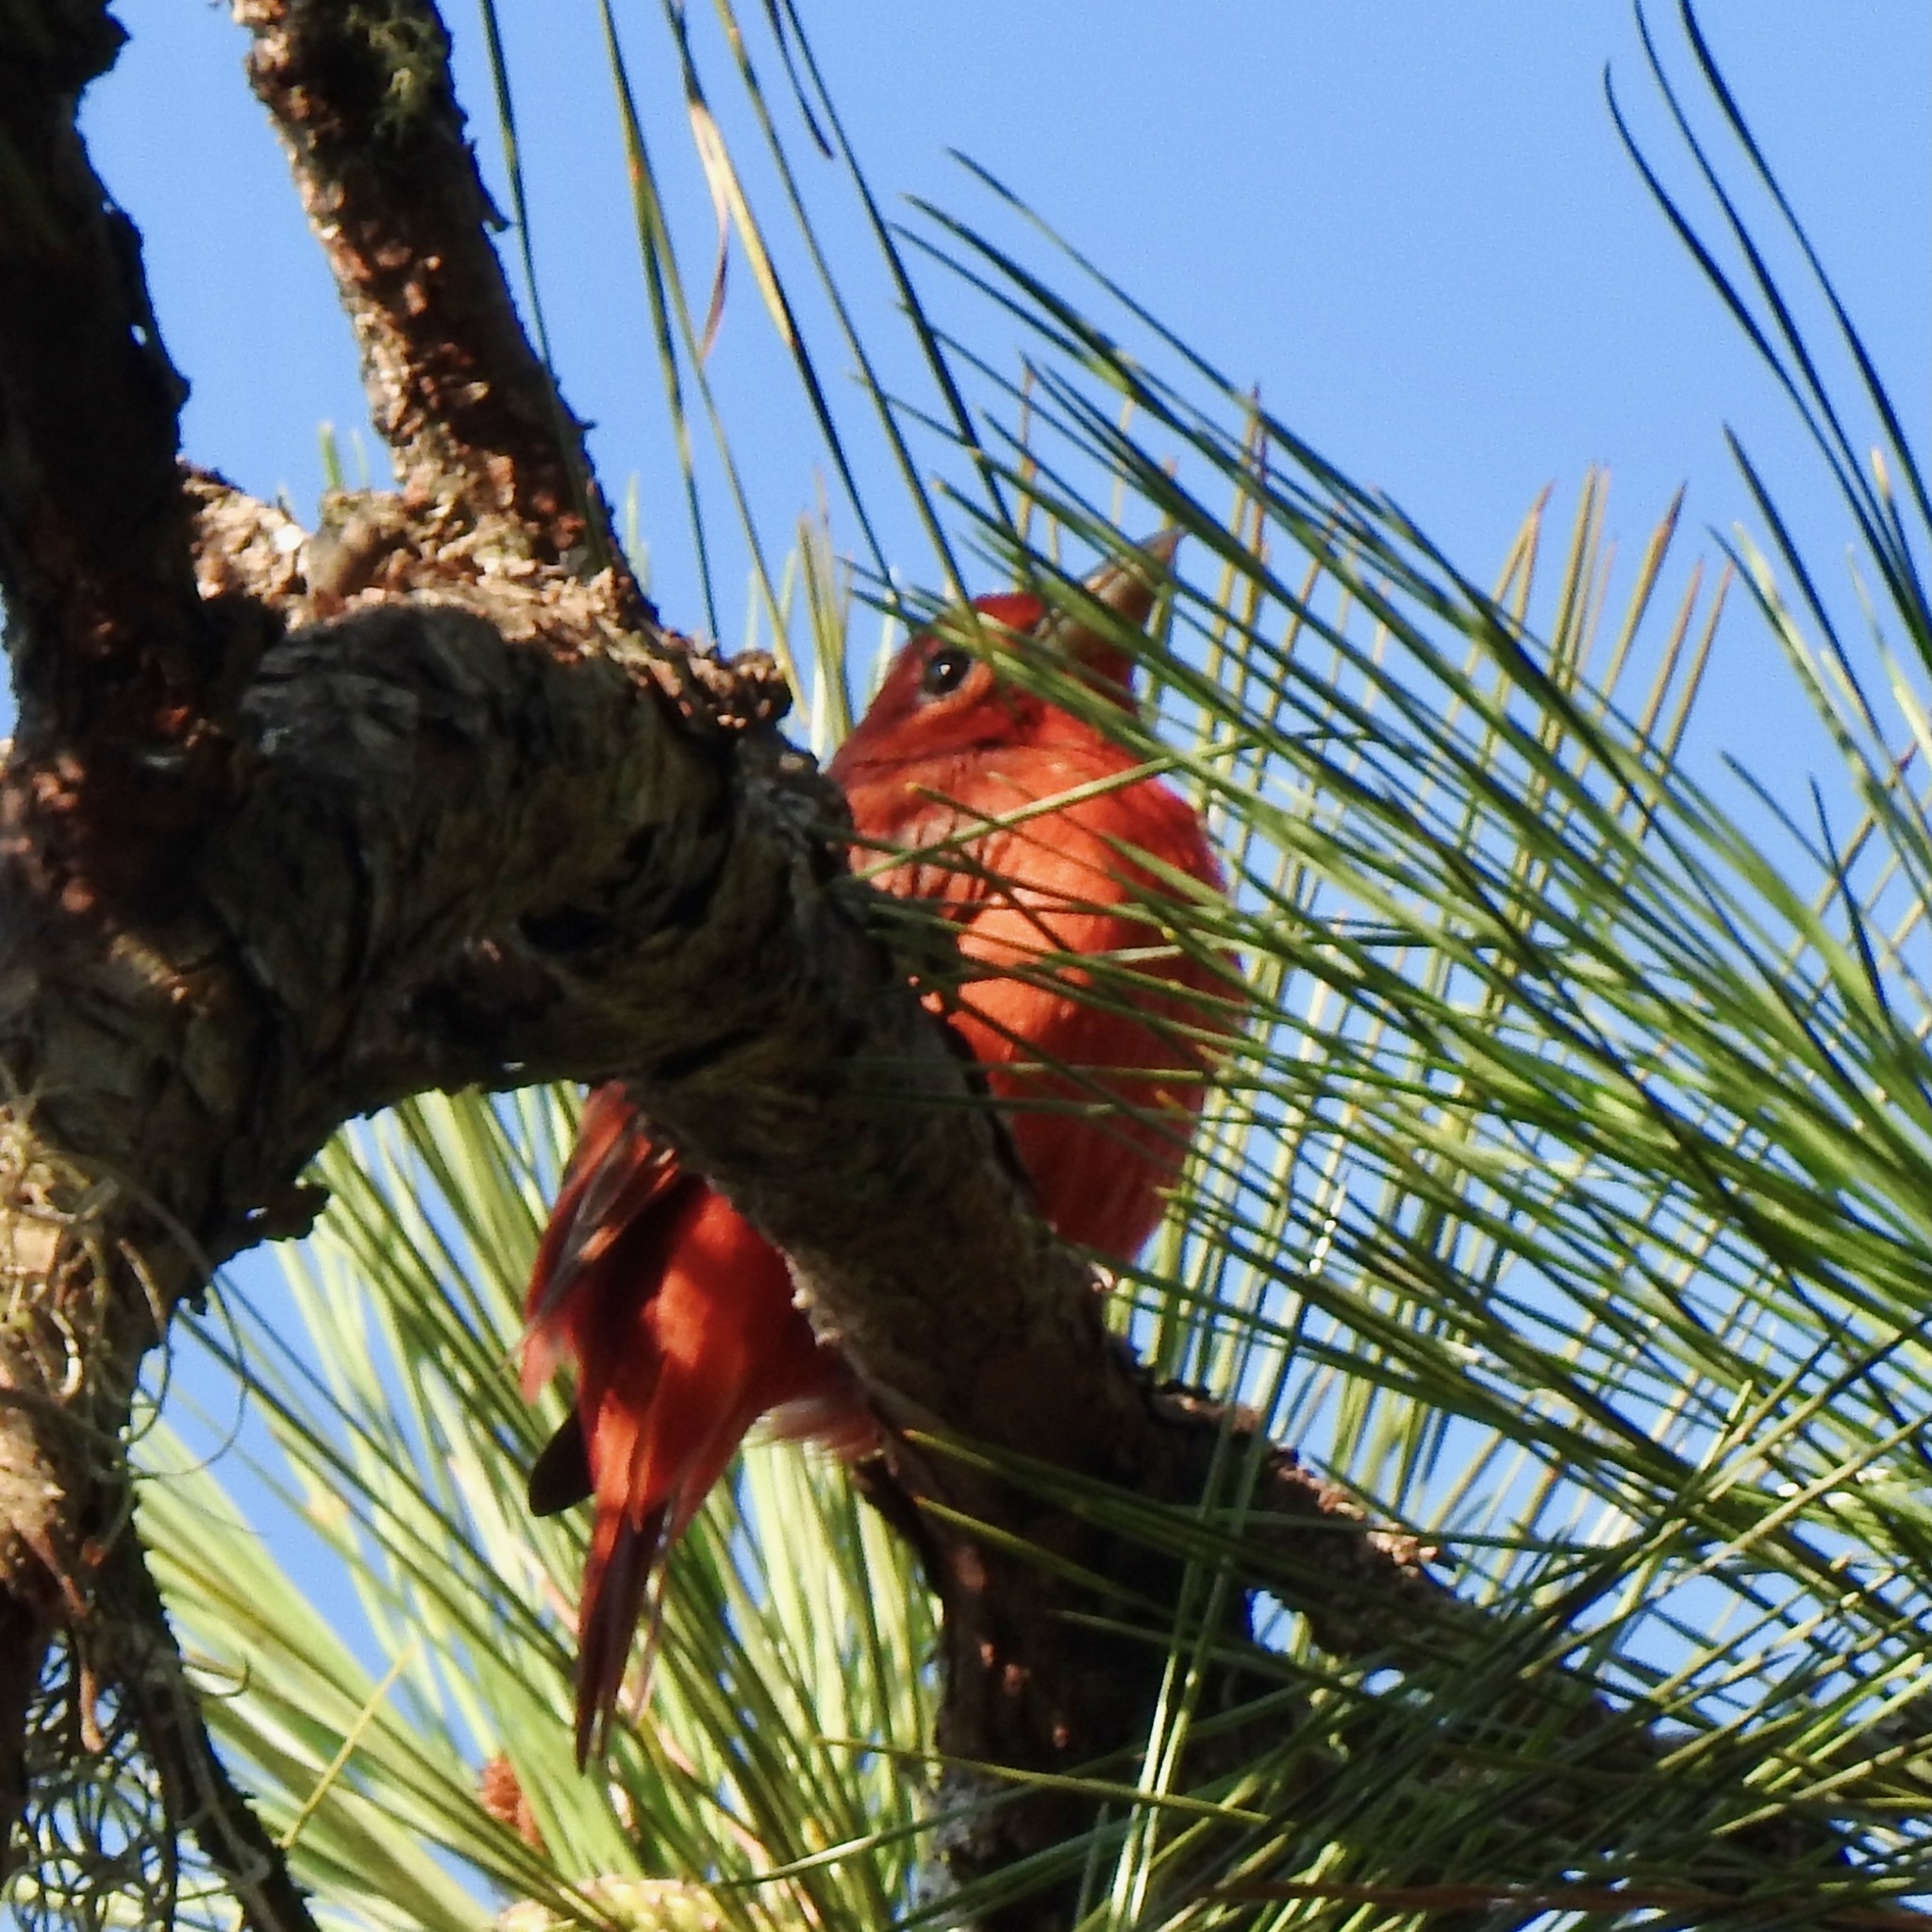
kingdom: Animalia
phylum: Chordata
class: Aves
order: Passeriformes
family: Cardinalidae
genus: Piranga
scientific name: Piranga rubra
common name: Summer tanager
